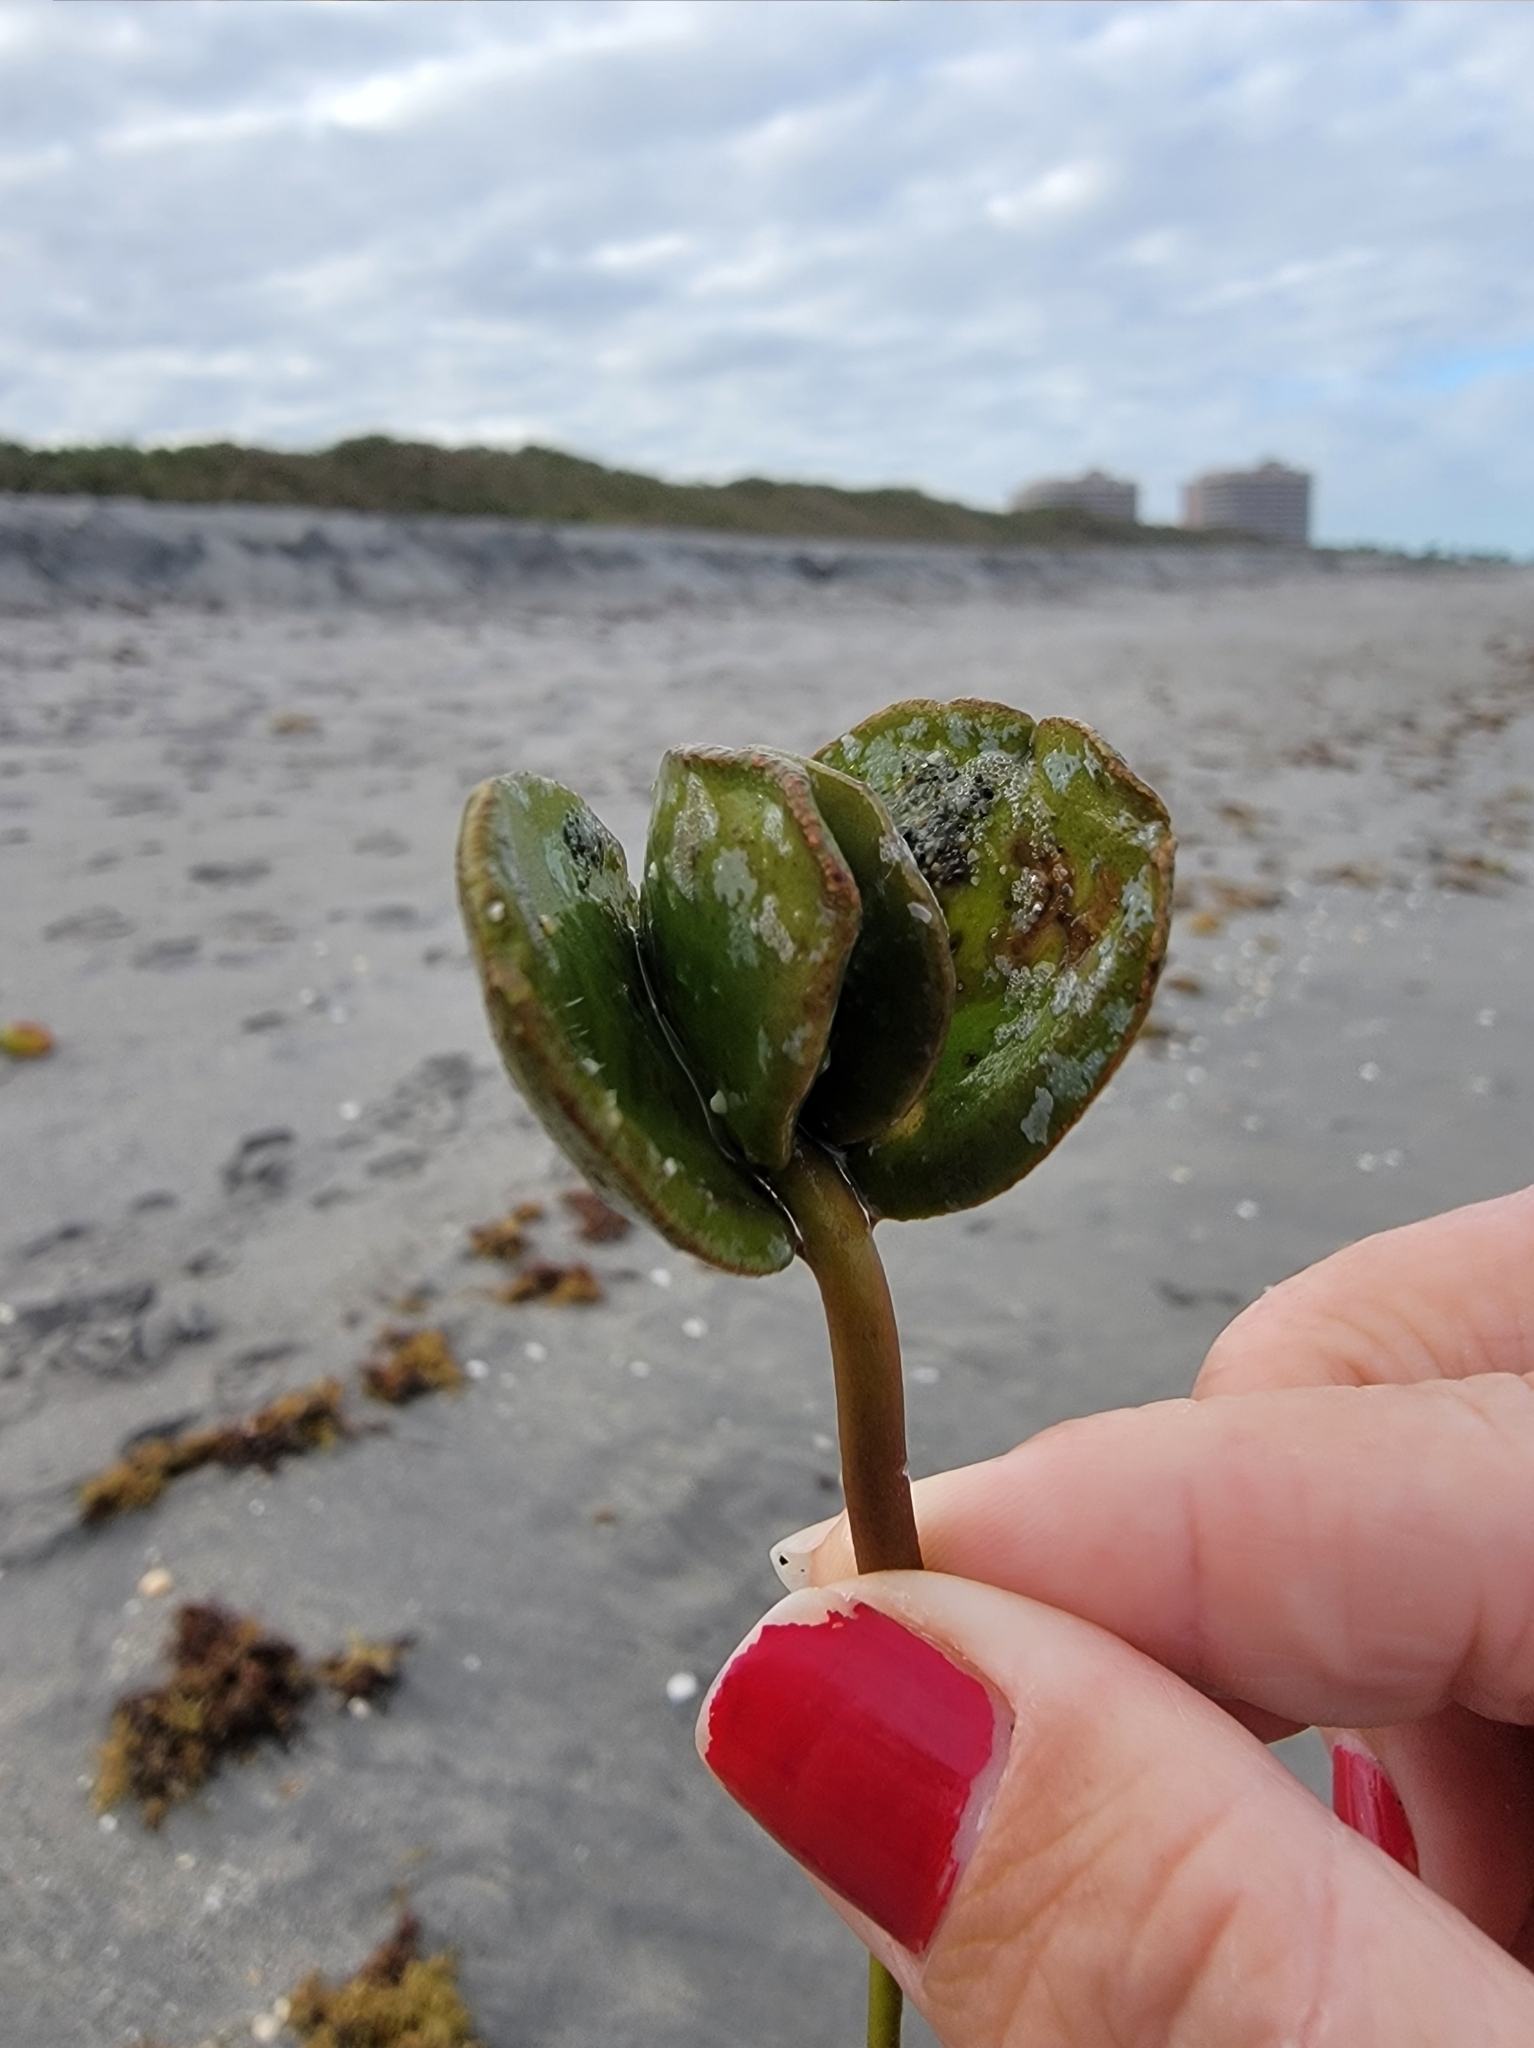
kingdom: Plantae
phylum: Tracheophyta
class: Magnoliopsida
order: Lamiales
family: Acanthaceae
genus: Avicennia
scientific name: Avicennia germinans
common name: Black mangrove
